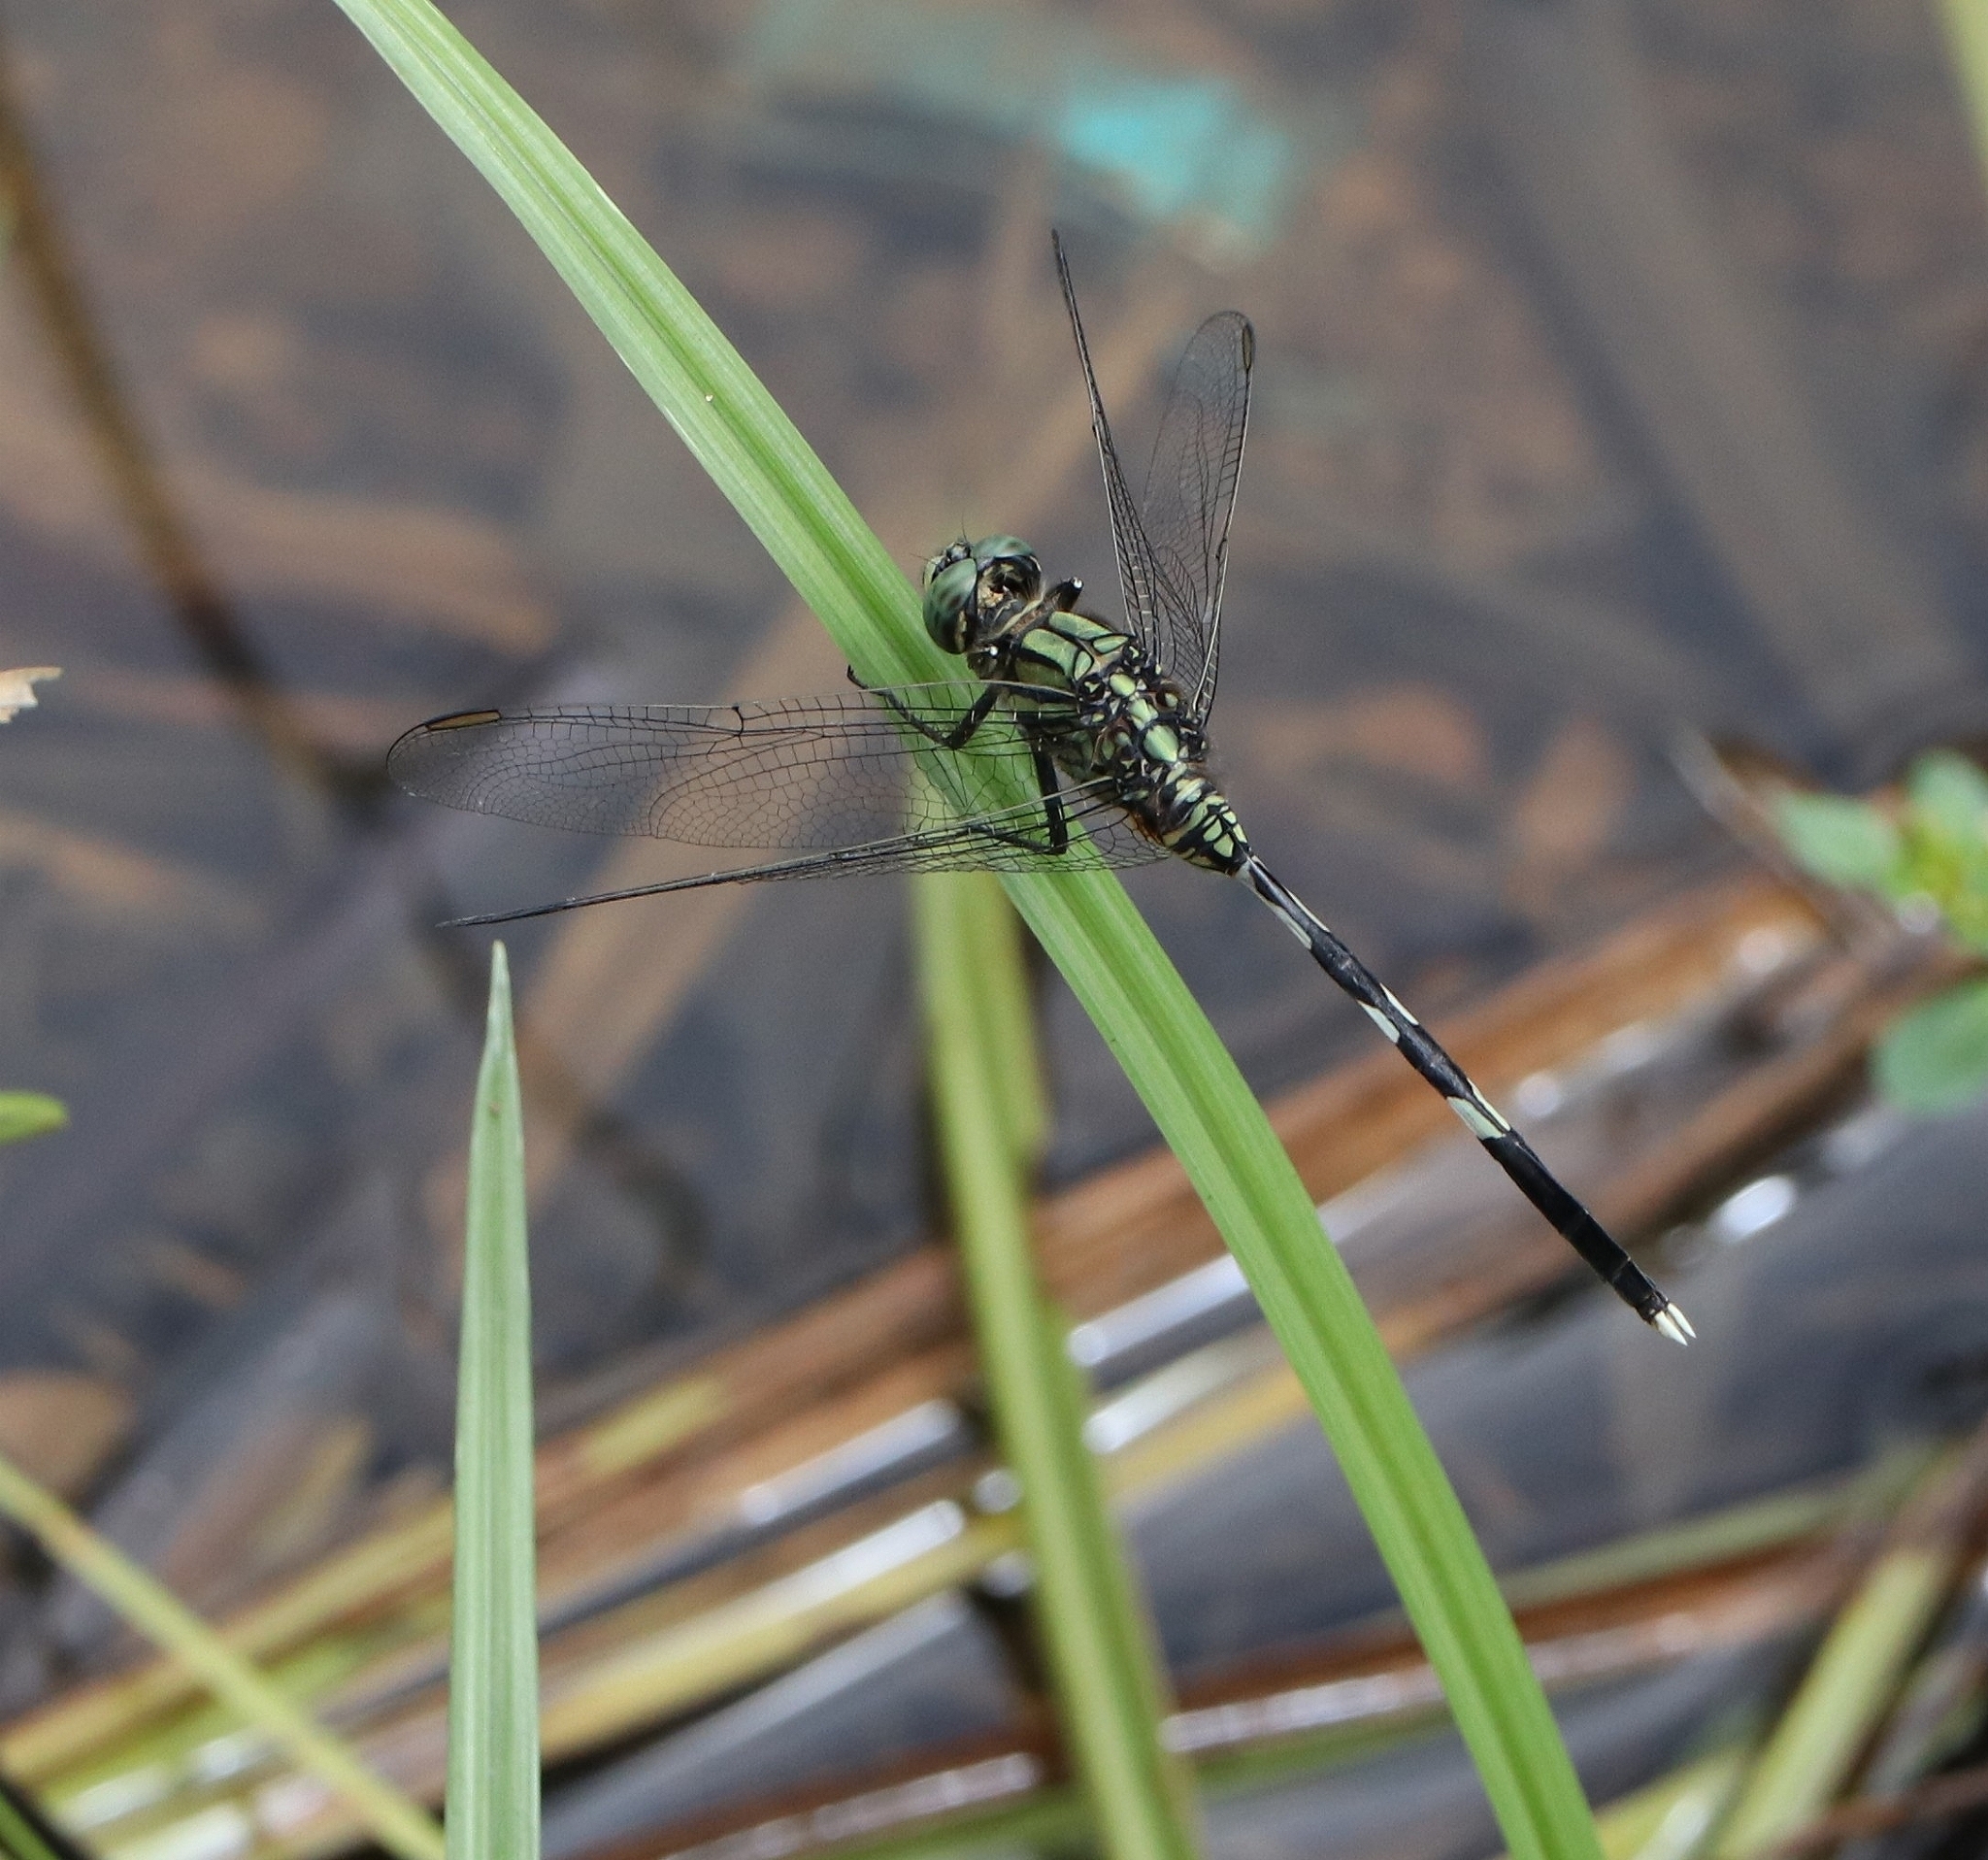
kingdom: Animalia
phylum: Arthropoda
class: Insecta
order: Odonata
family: Libellulidae
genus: Orthetrum
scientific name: Orthetrum sabina
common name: Slender skimmer
